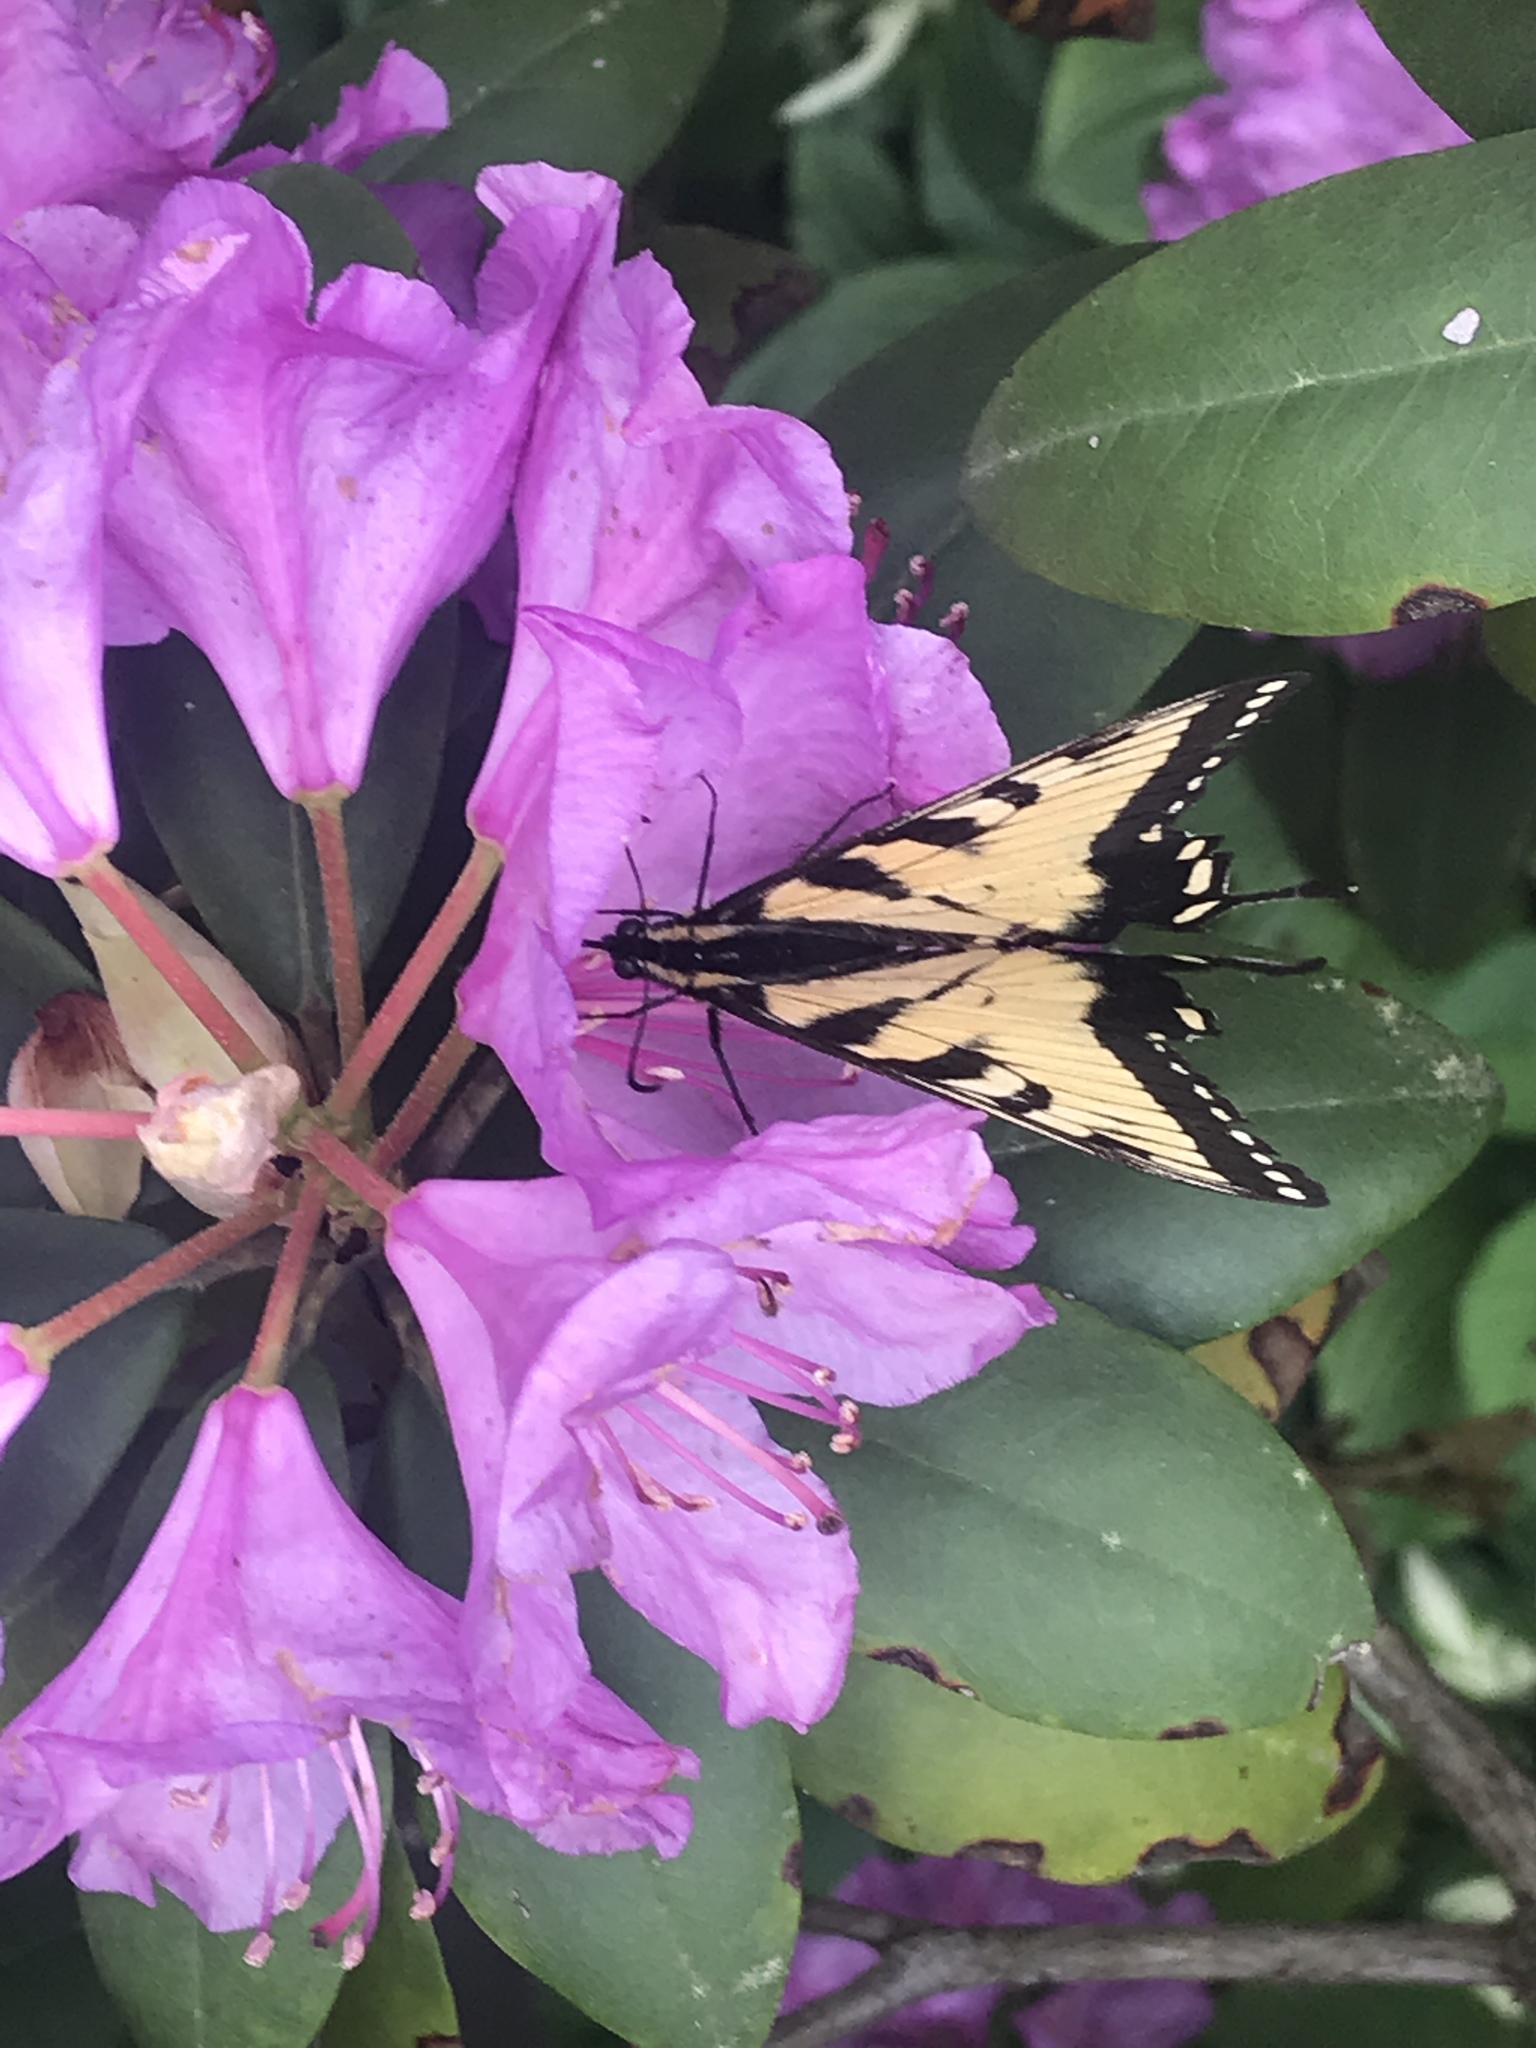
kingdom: Animalia
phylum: Arthropoda
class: Insecta
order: Lepidoptera
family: Papilionidae
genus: Papilio
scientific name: Papilio glaucus
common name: Tiger swallowtail
